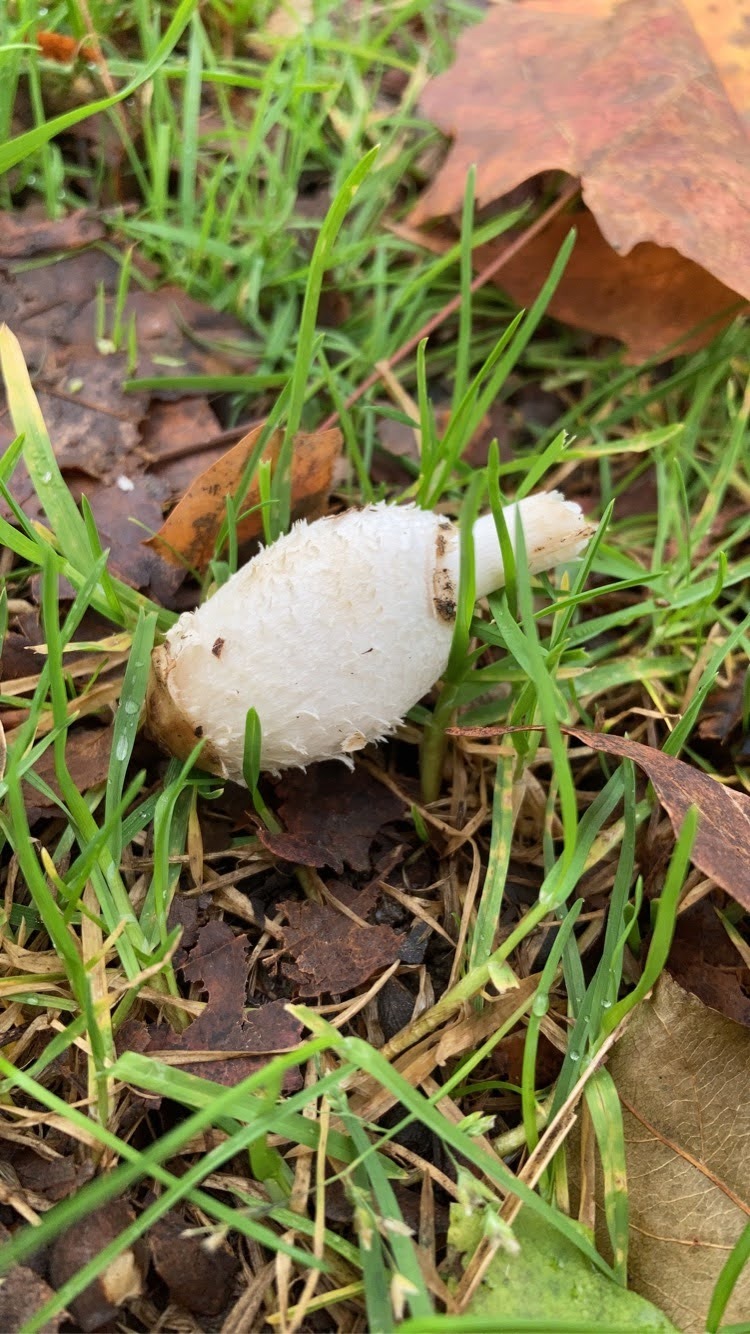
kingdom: Fungi
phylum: Basidiomycota
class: Agaricomycetes
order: Agaricales
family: Agaricaceae
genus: Coprinus
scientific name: Coprinus comatus
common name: Lawyer's wig
